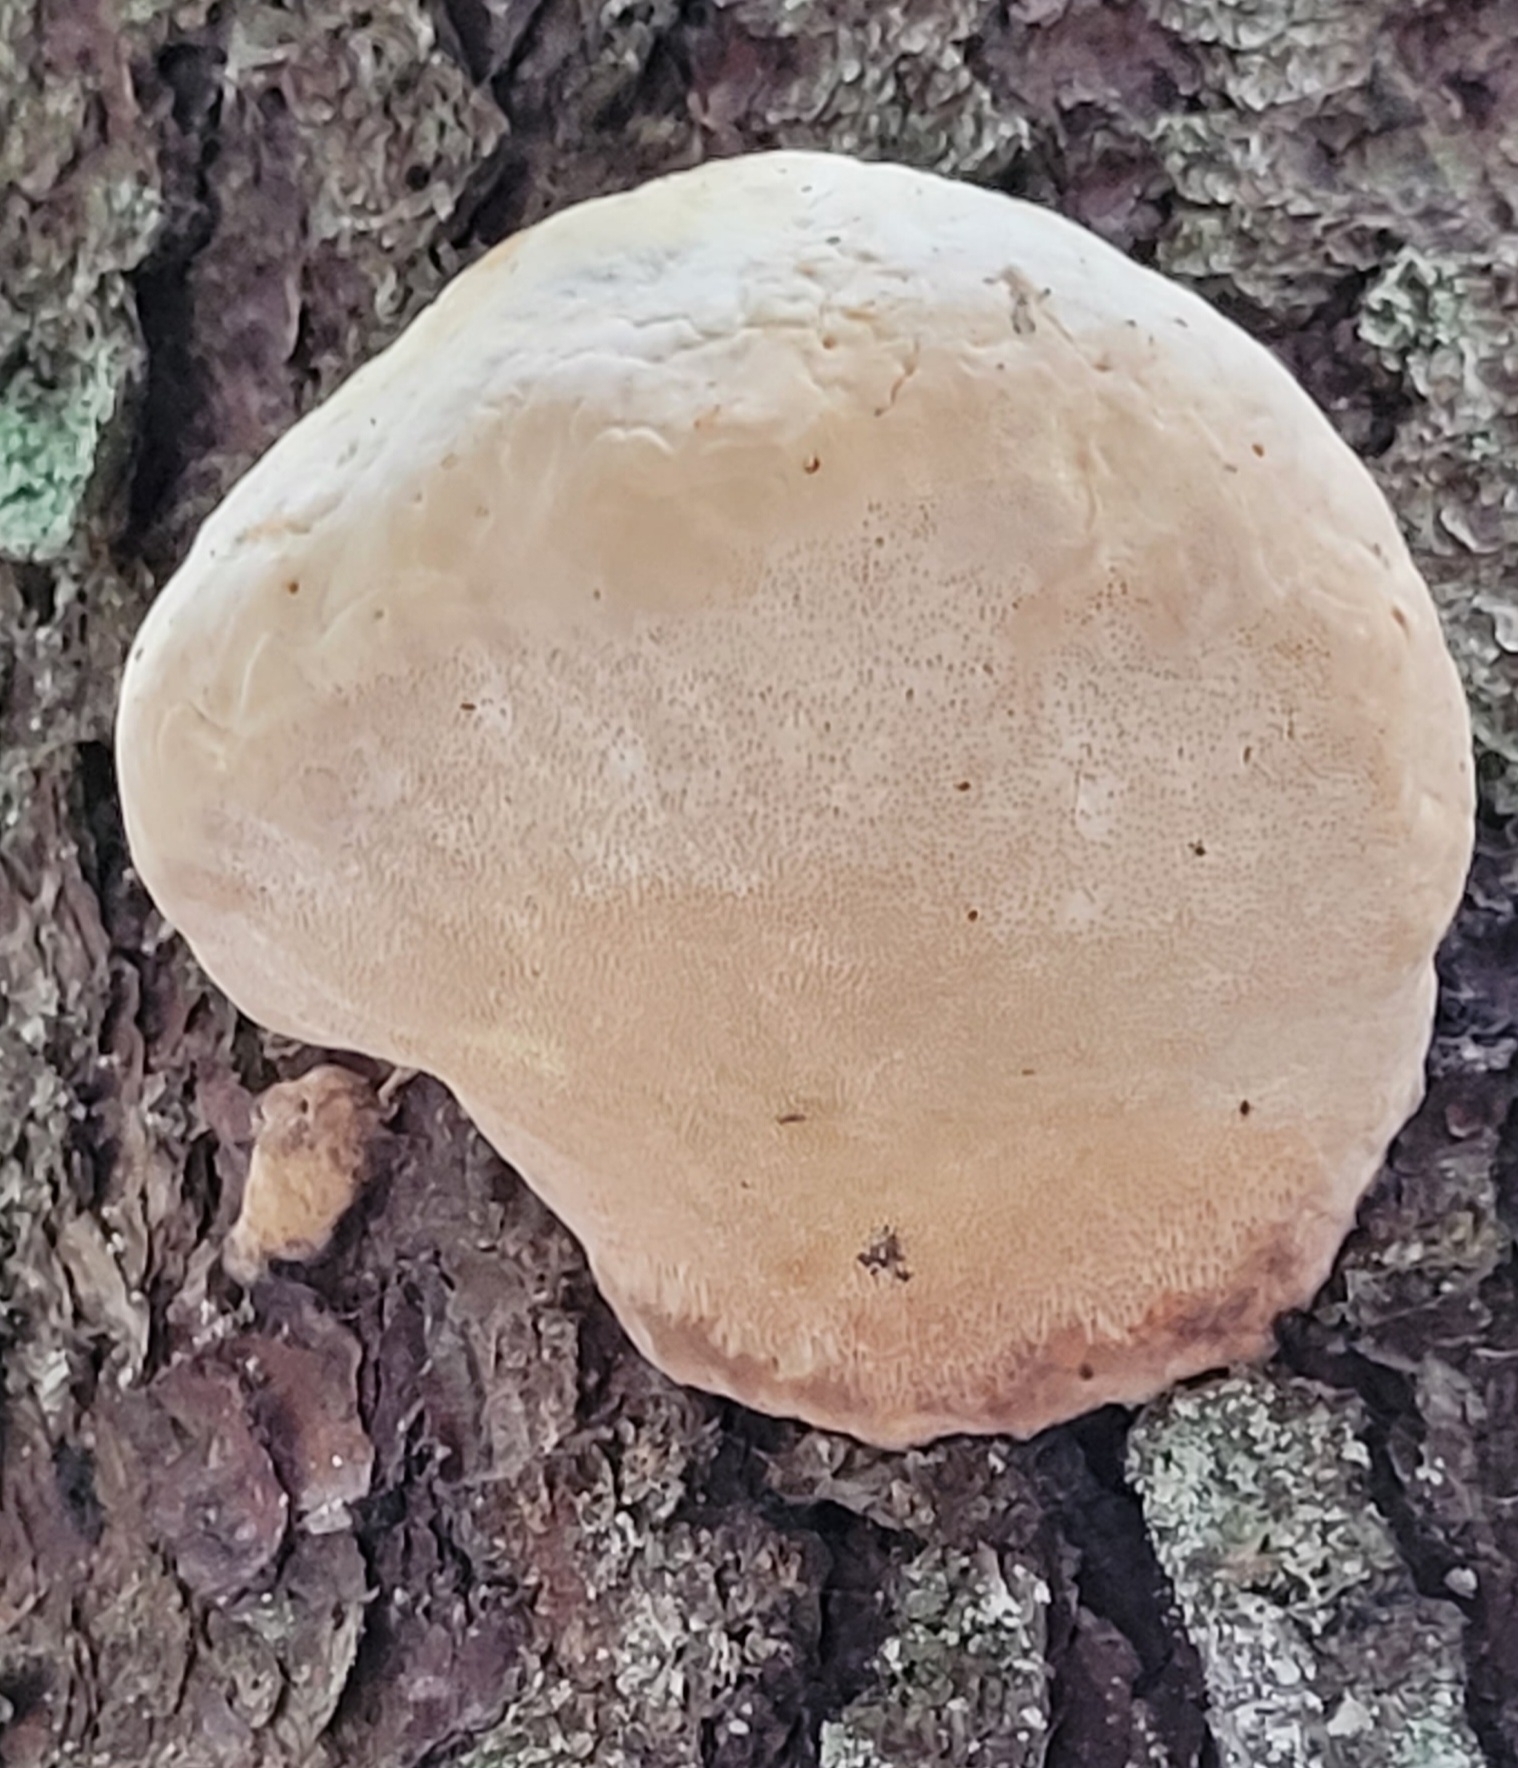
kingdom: Fungi
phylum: Basidiomycota
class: Agaricomycetes
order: Polyporales
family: Fomitopsidaceae
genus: Fomitopsis
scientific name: Fomitopsis pinicola
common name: Red-belted bracket
